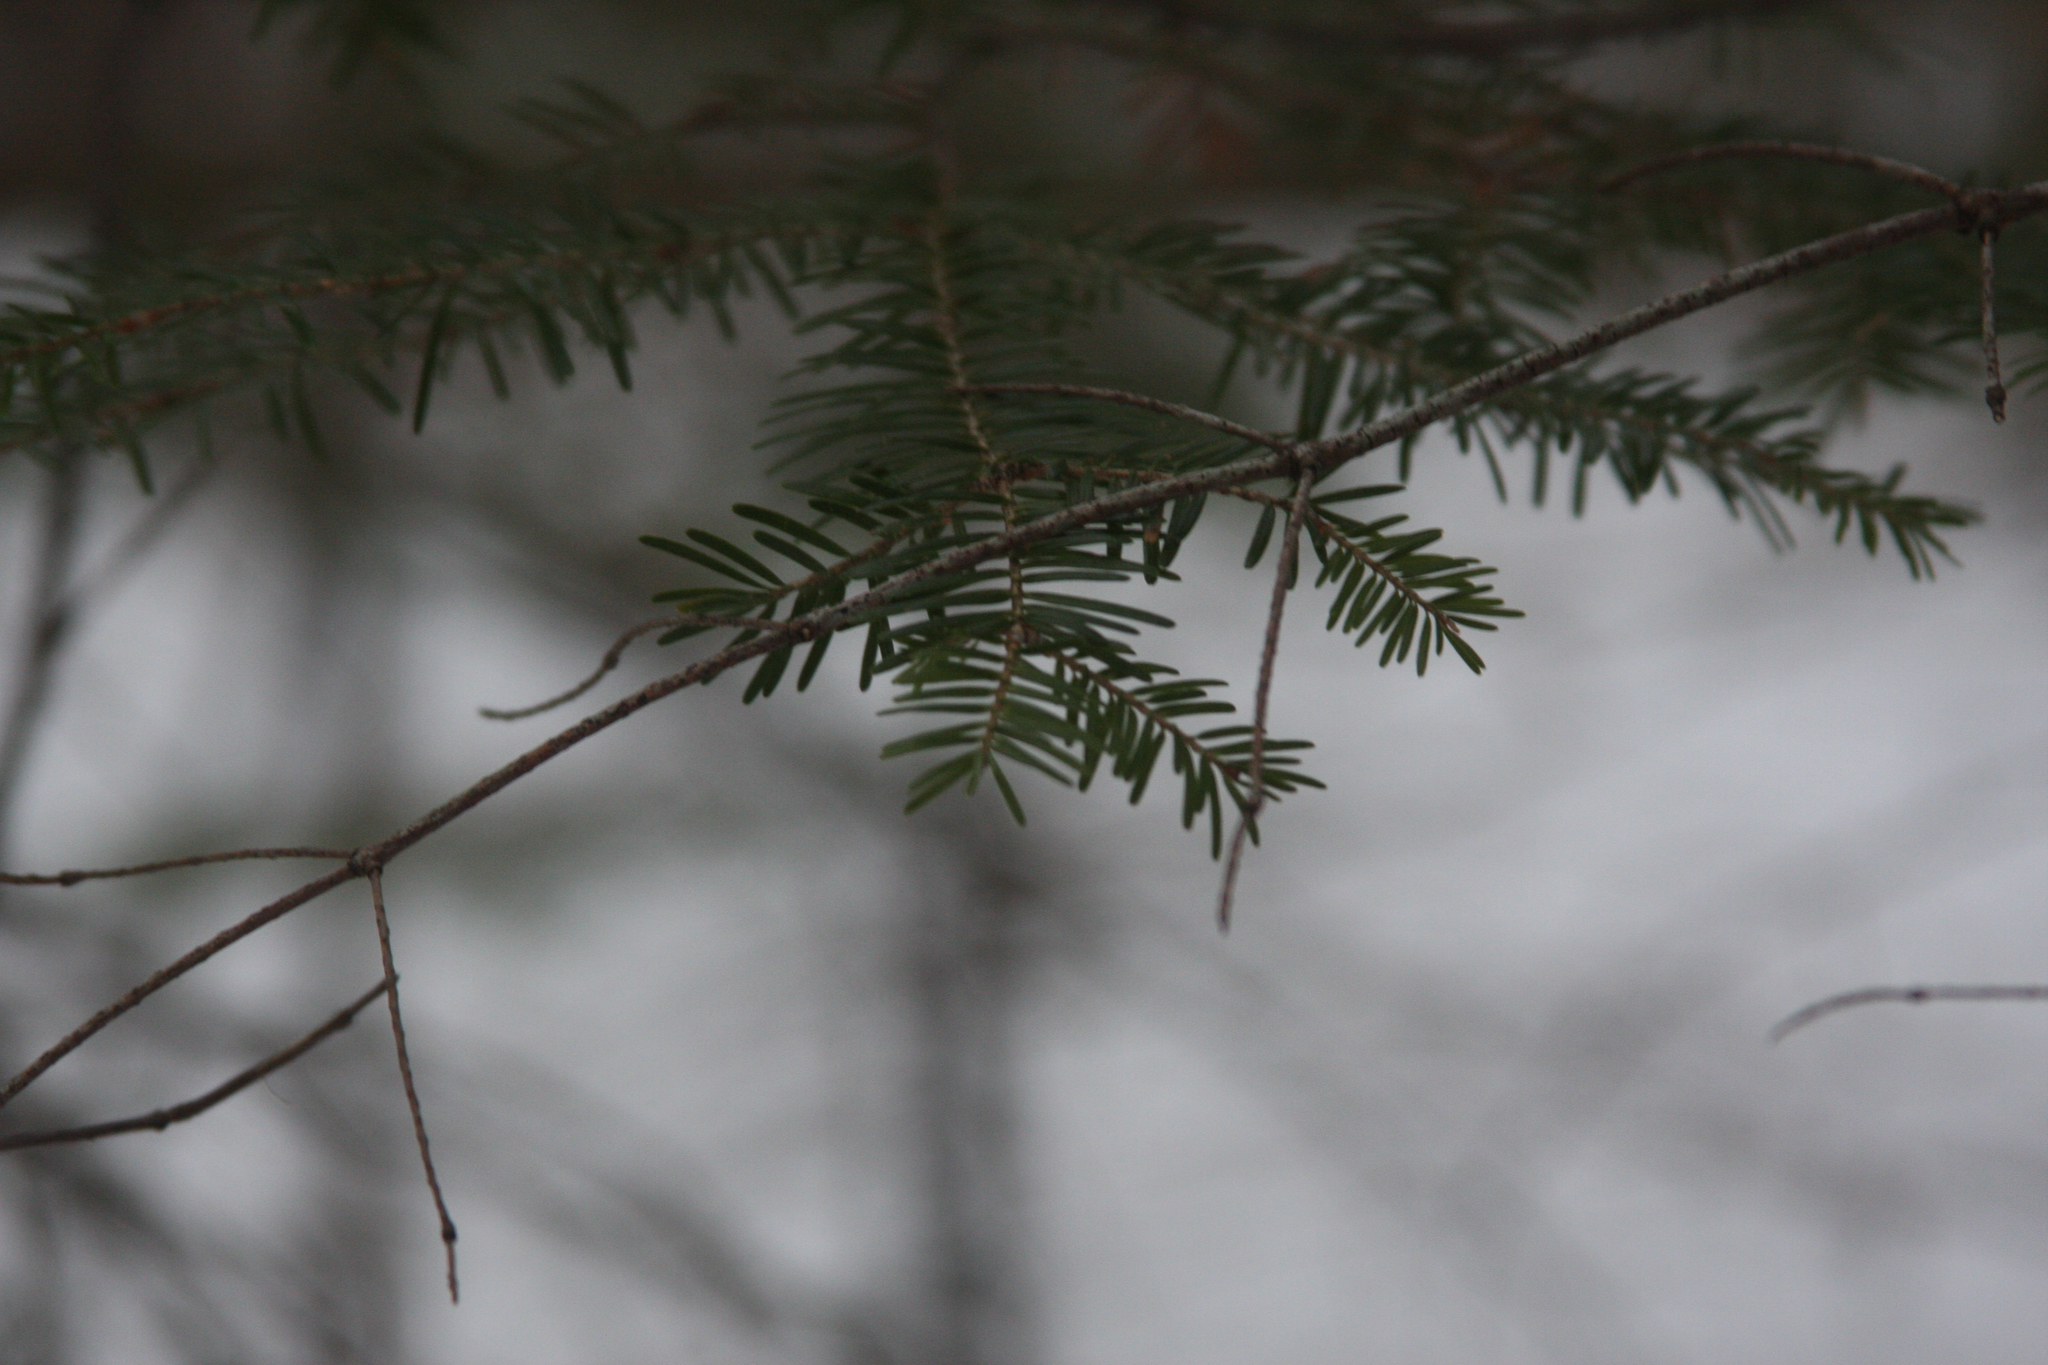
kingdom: Plantae
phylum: Tracheophyta
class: Pinopsida
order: Pinales
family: Pinaceae
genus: Abies
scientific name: Abies balsamea
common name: Balsam fir
